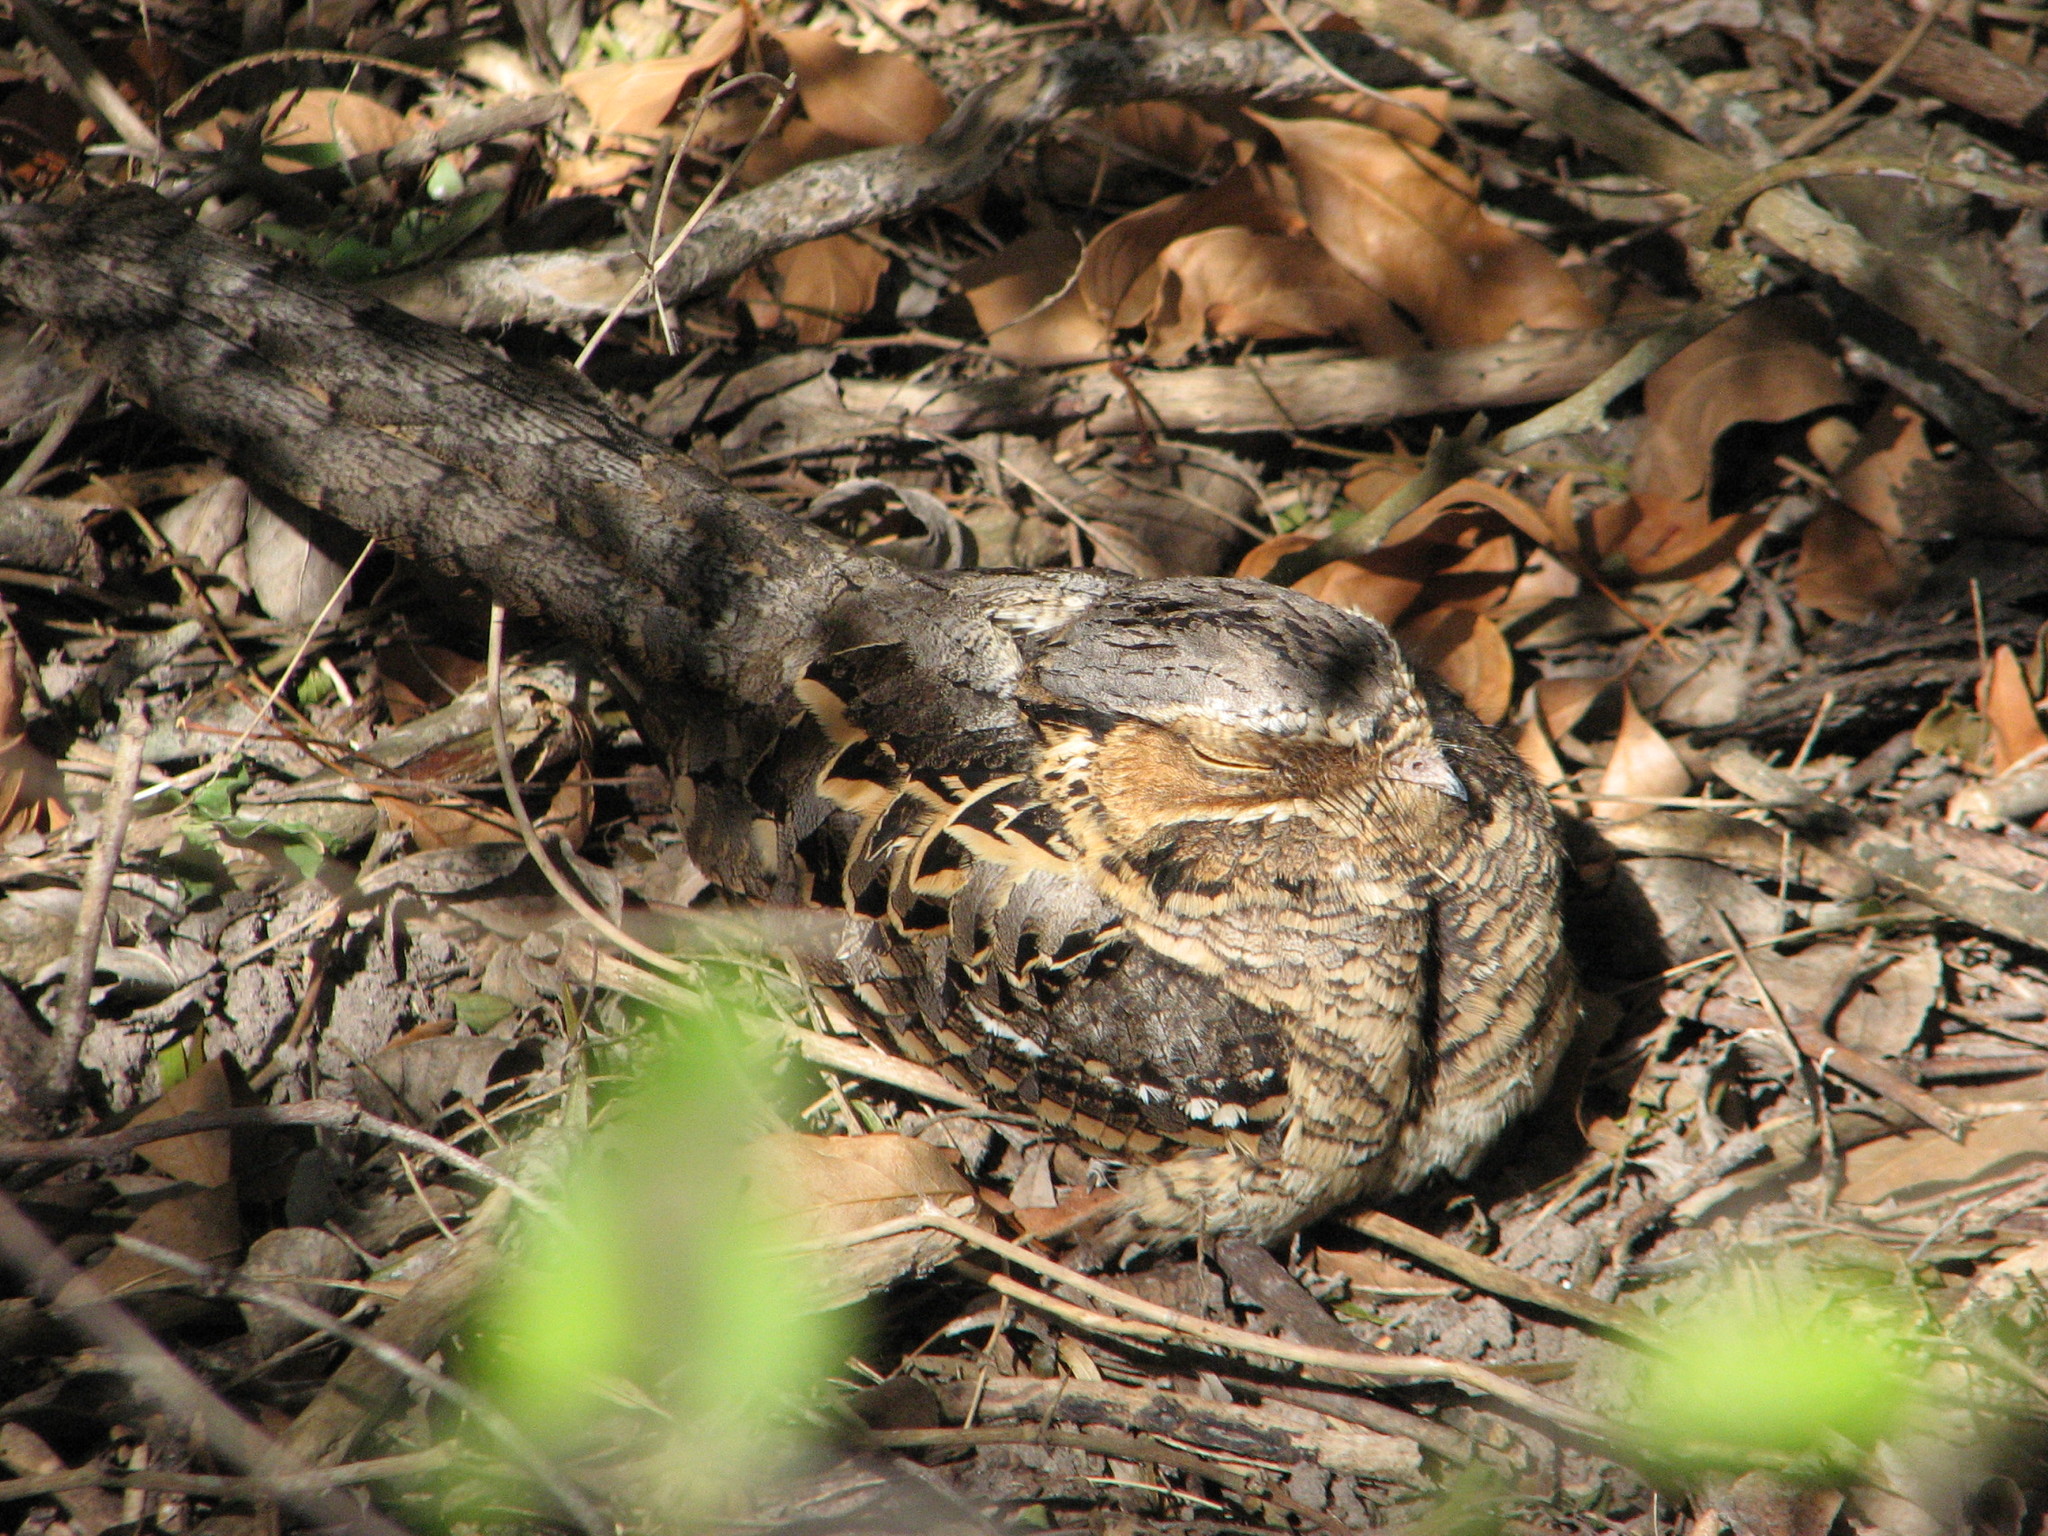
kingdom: Animalia
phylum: Chordata
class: Aves
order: Caprimulgiformes
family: Caprimulgidae
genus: Nyctidromus
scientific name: Nyctidromus albicollis
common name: Pauraque
